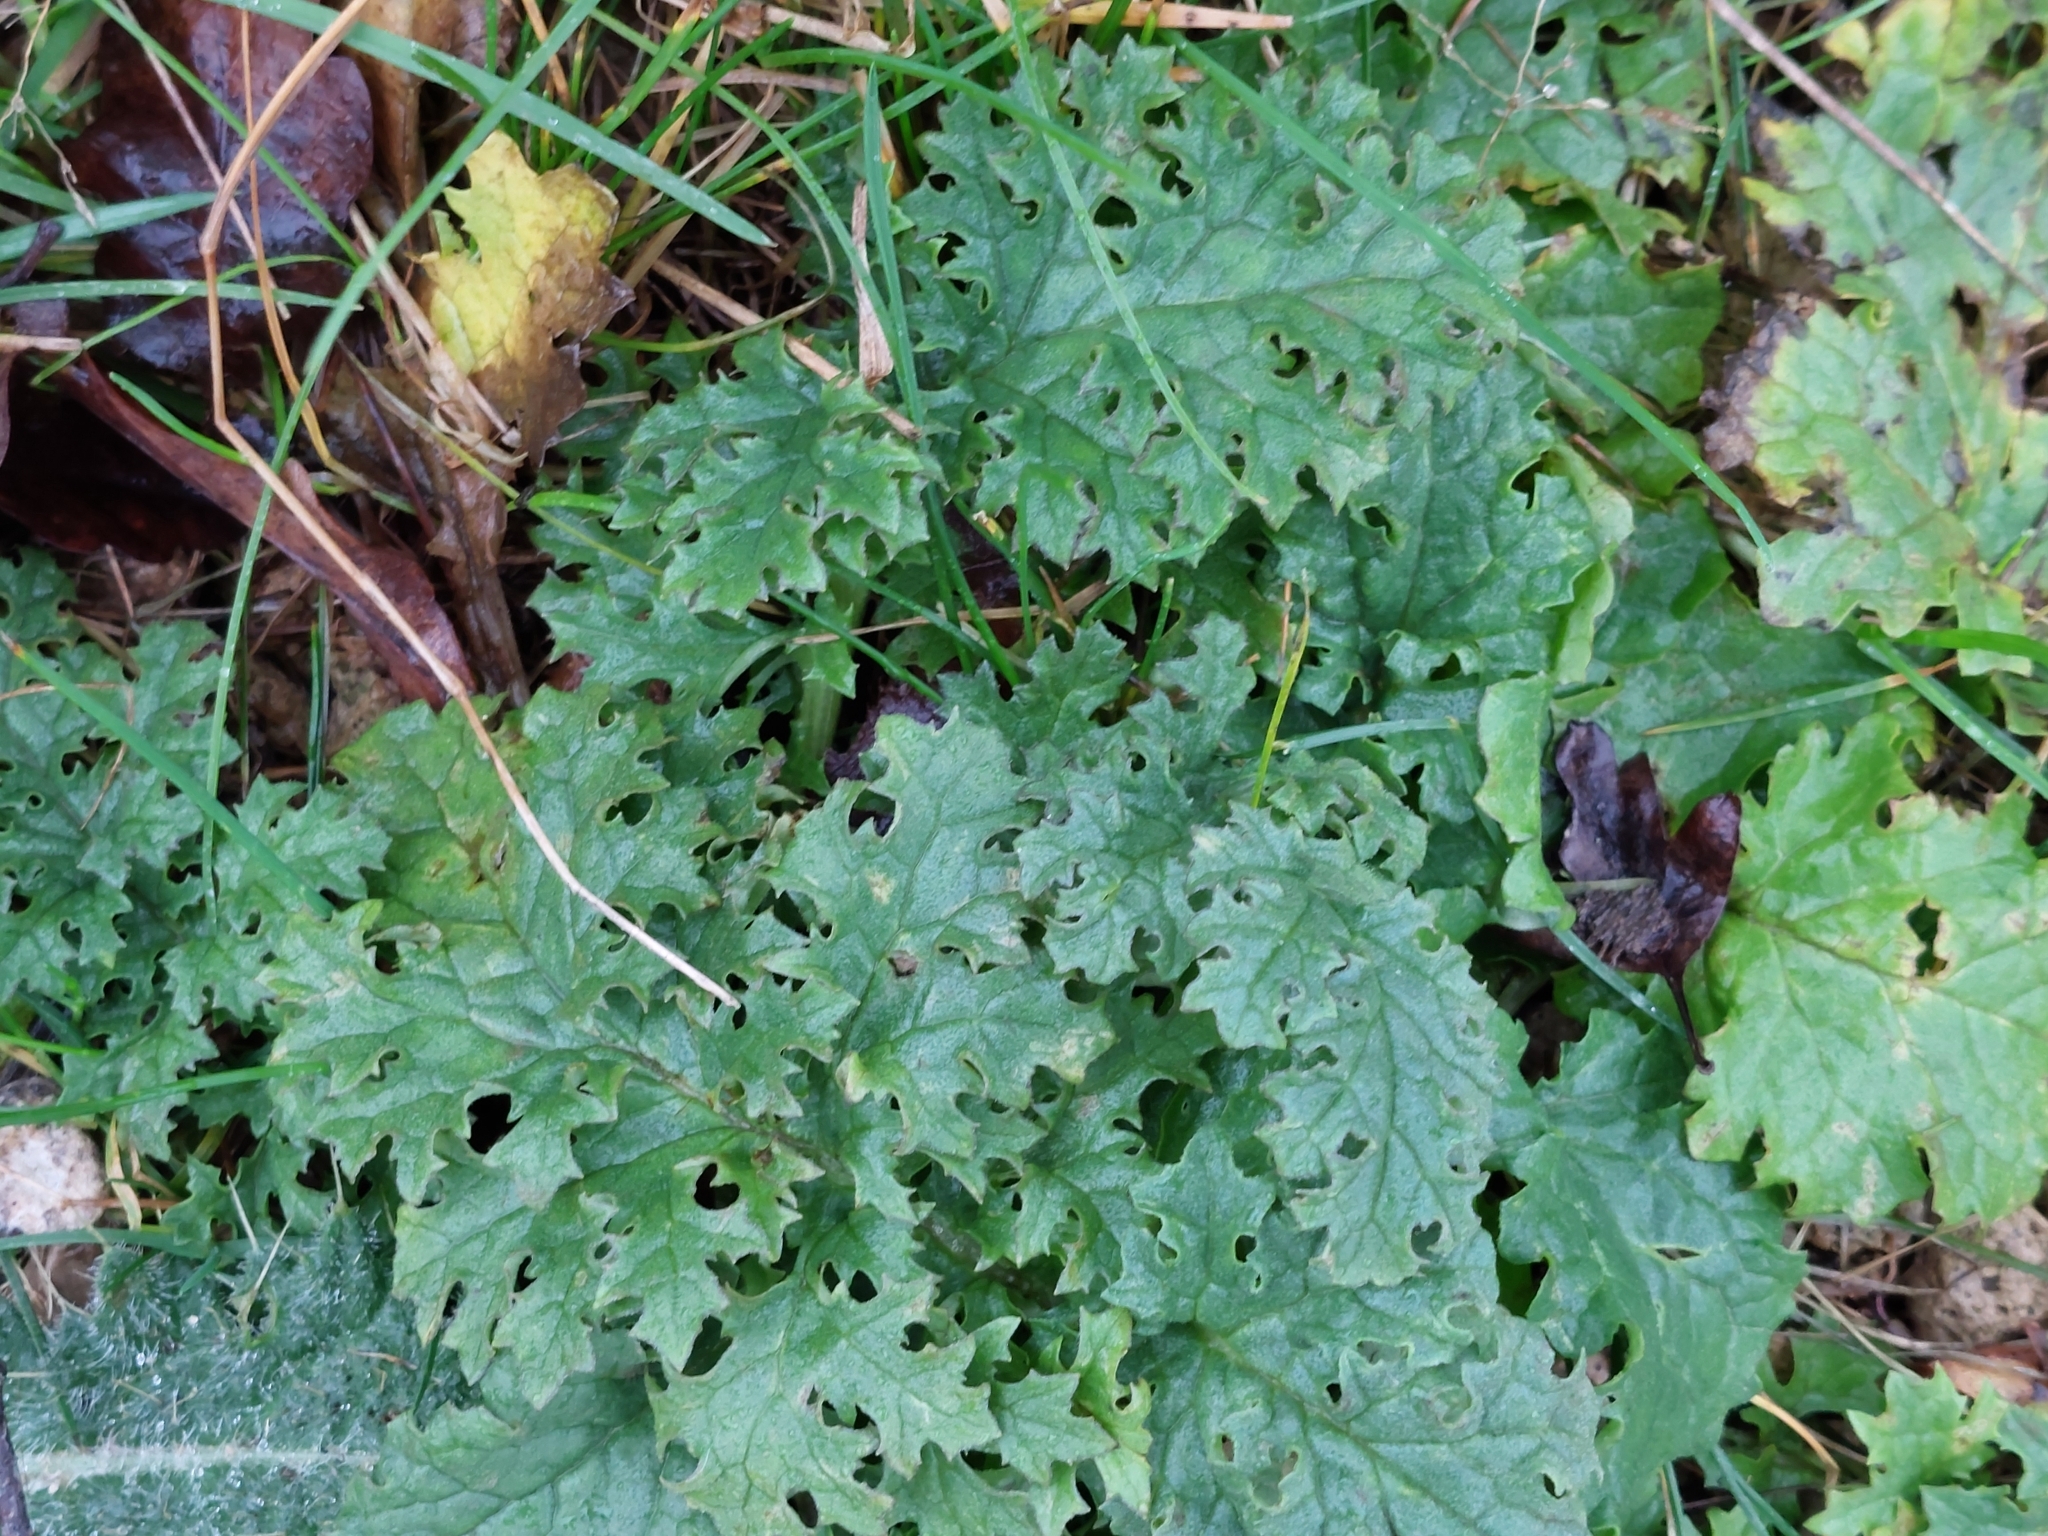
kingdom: Plantae
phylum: Tracheophyta
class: Magnoliopsida
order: Asterales
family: Asteraceae
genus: Jacobaea
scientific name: Jacobaea vulgaris
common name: Stinking willie
